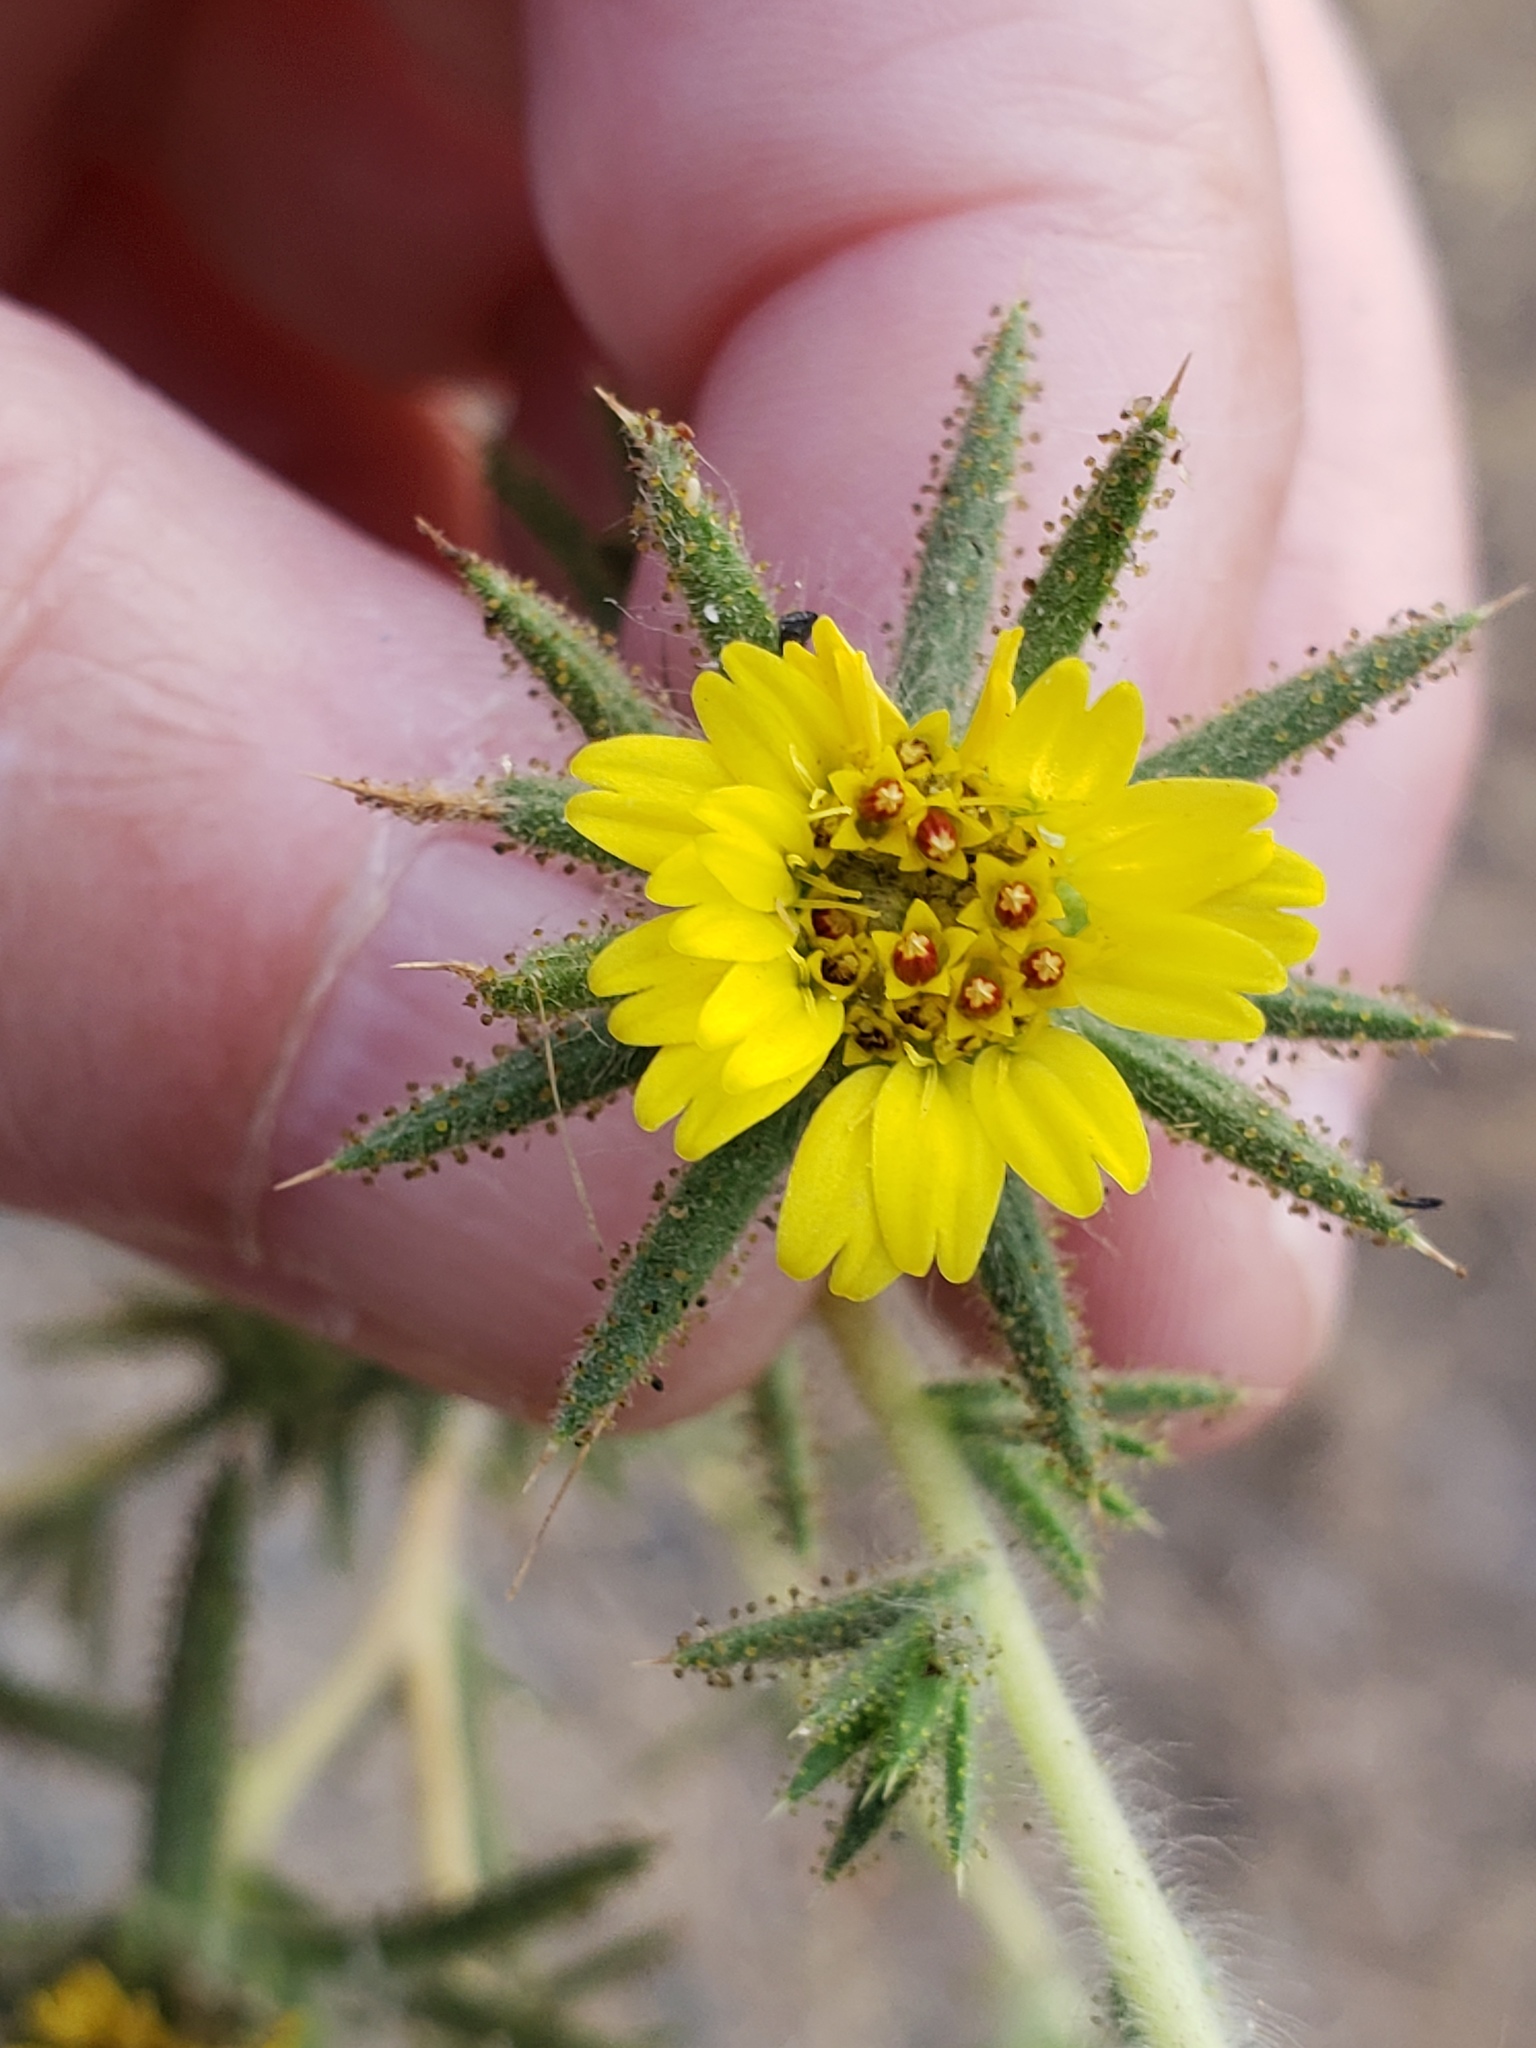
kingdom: Plantae
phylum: Tracheophyta
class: Magnoliopsida
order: Asterales
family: Asteraceae
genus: Centromadia
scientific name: Centromadia fitchii
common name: Fitch's spikeweed
